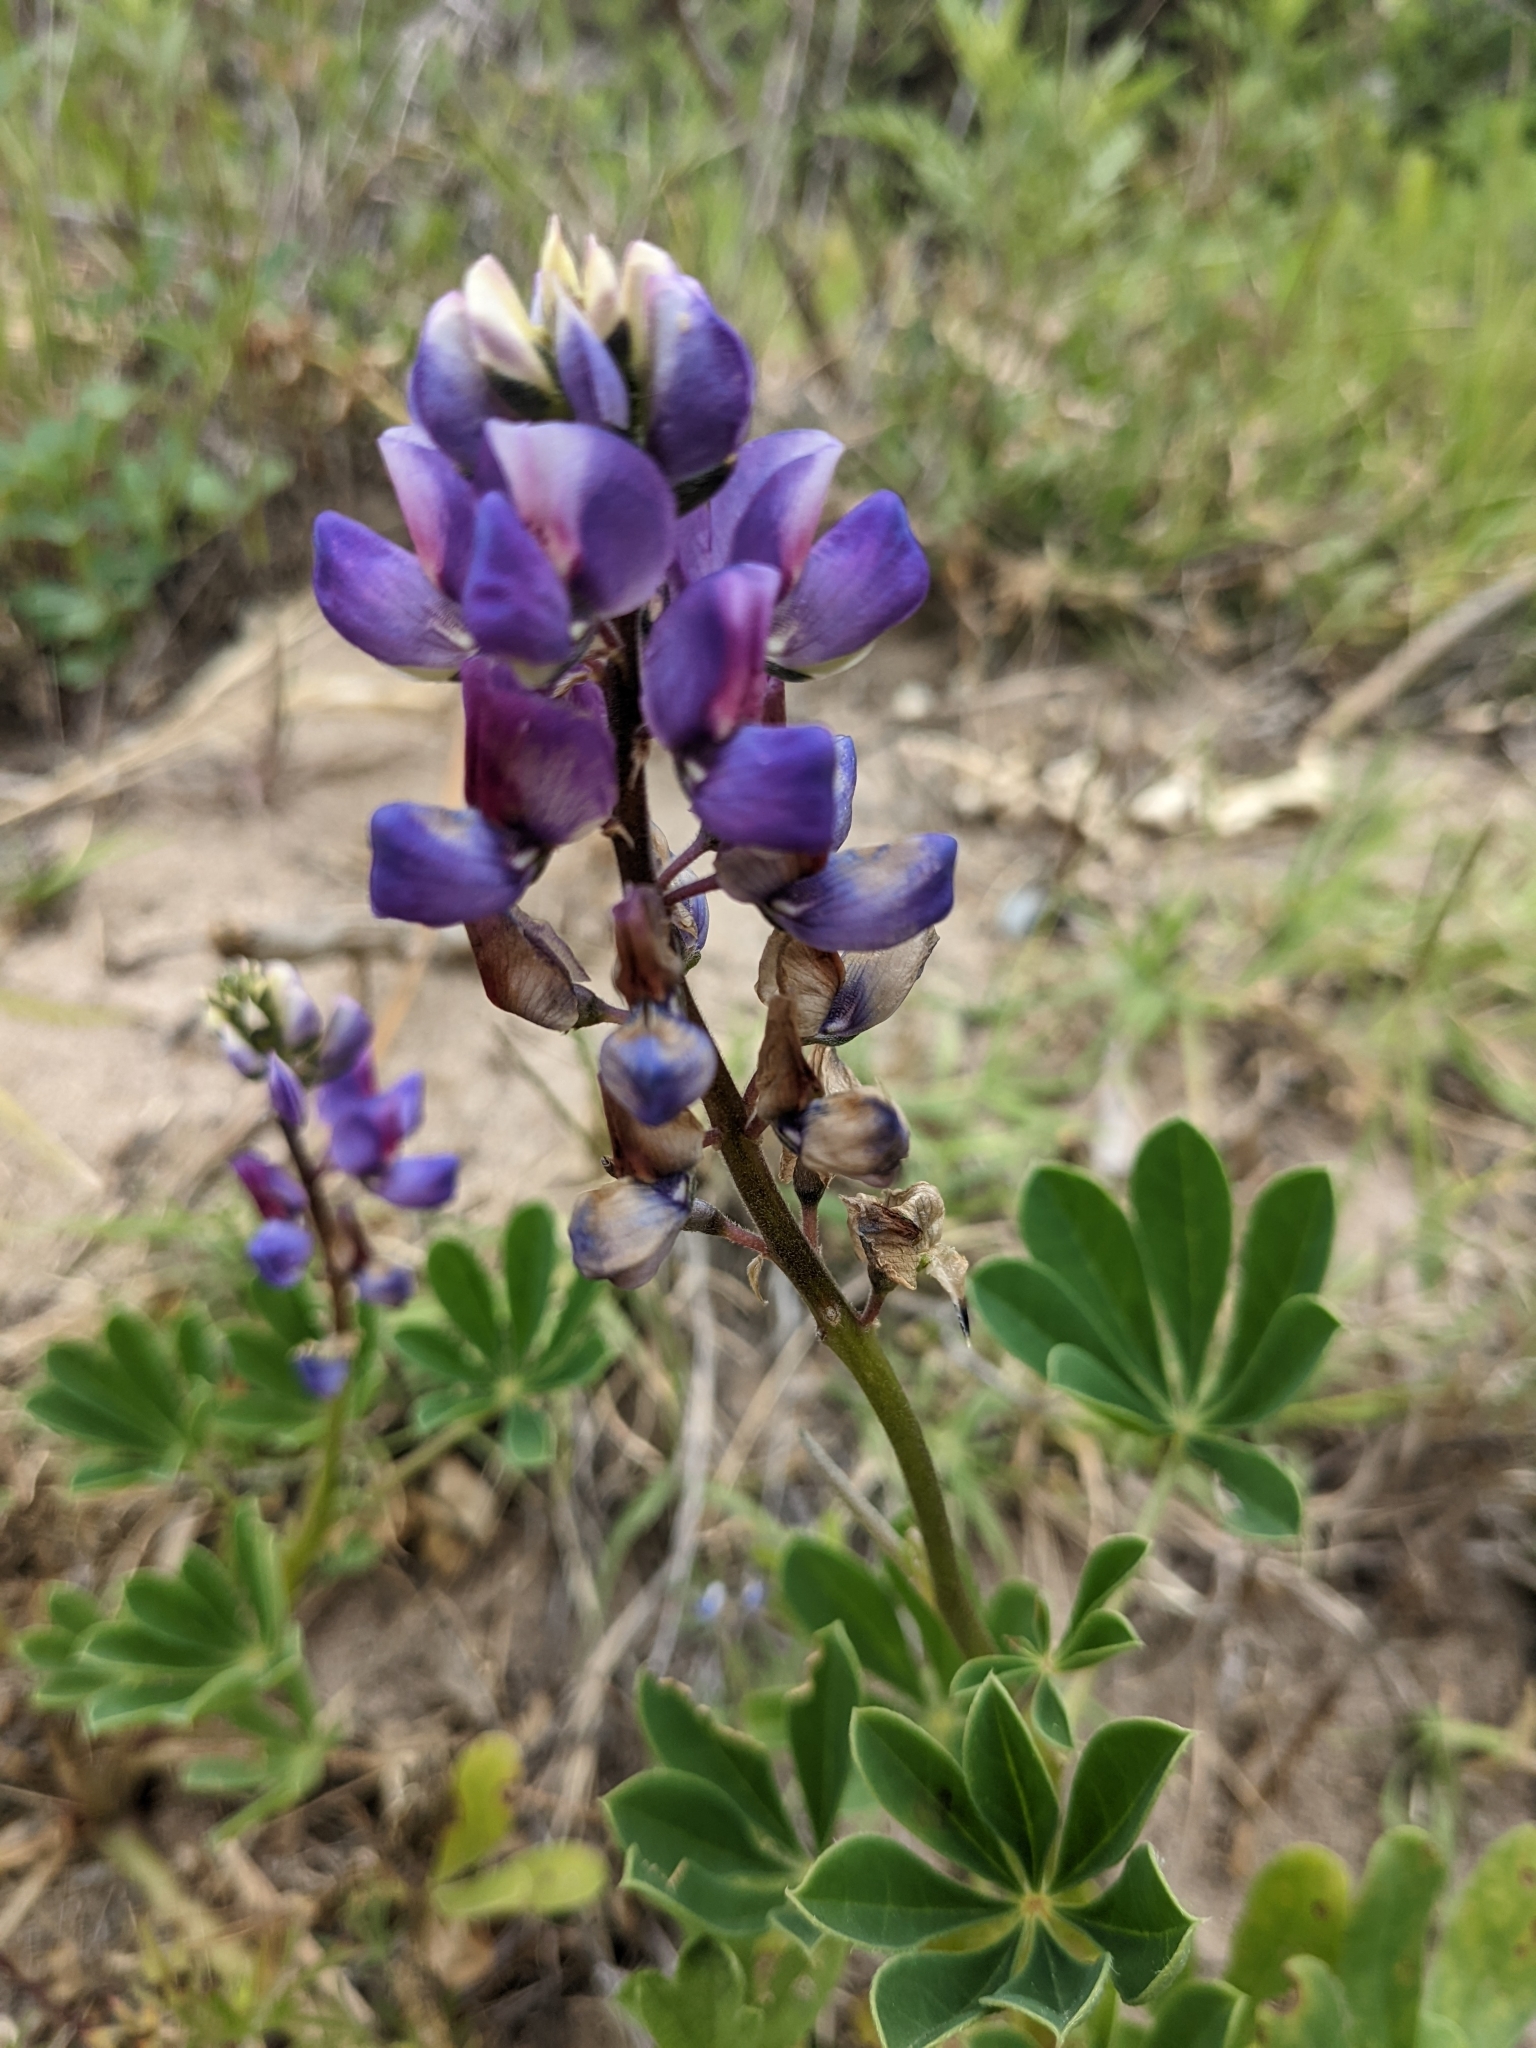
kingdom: Plantae
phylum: Tracheophyta
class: Magnoliopsida
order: Fabales
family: Fabaceae
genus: Lupinus
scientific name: Lupinus succulentus
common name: Arroyo lupine
